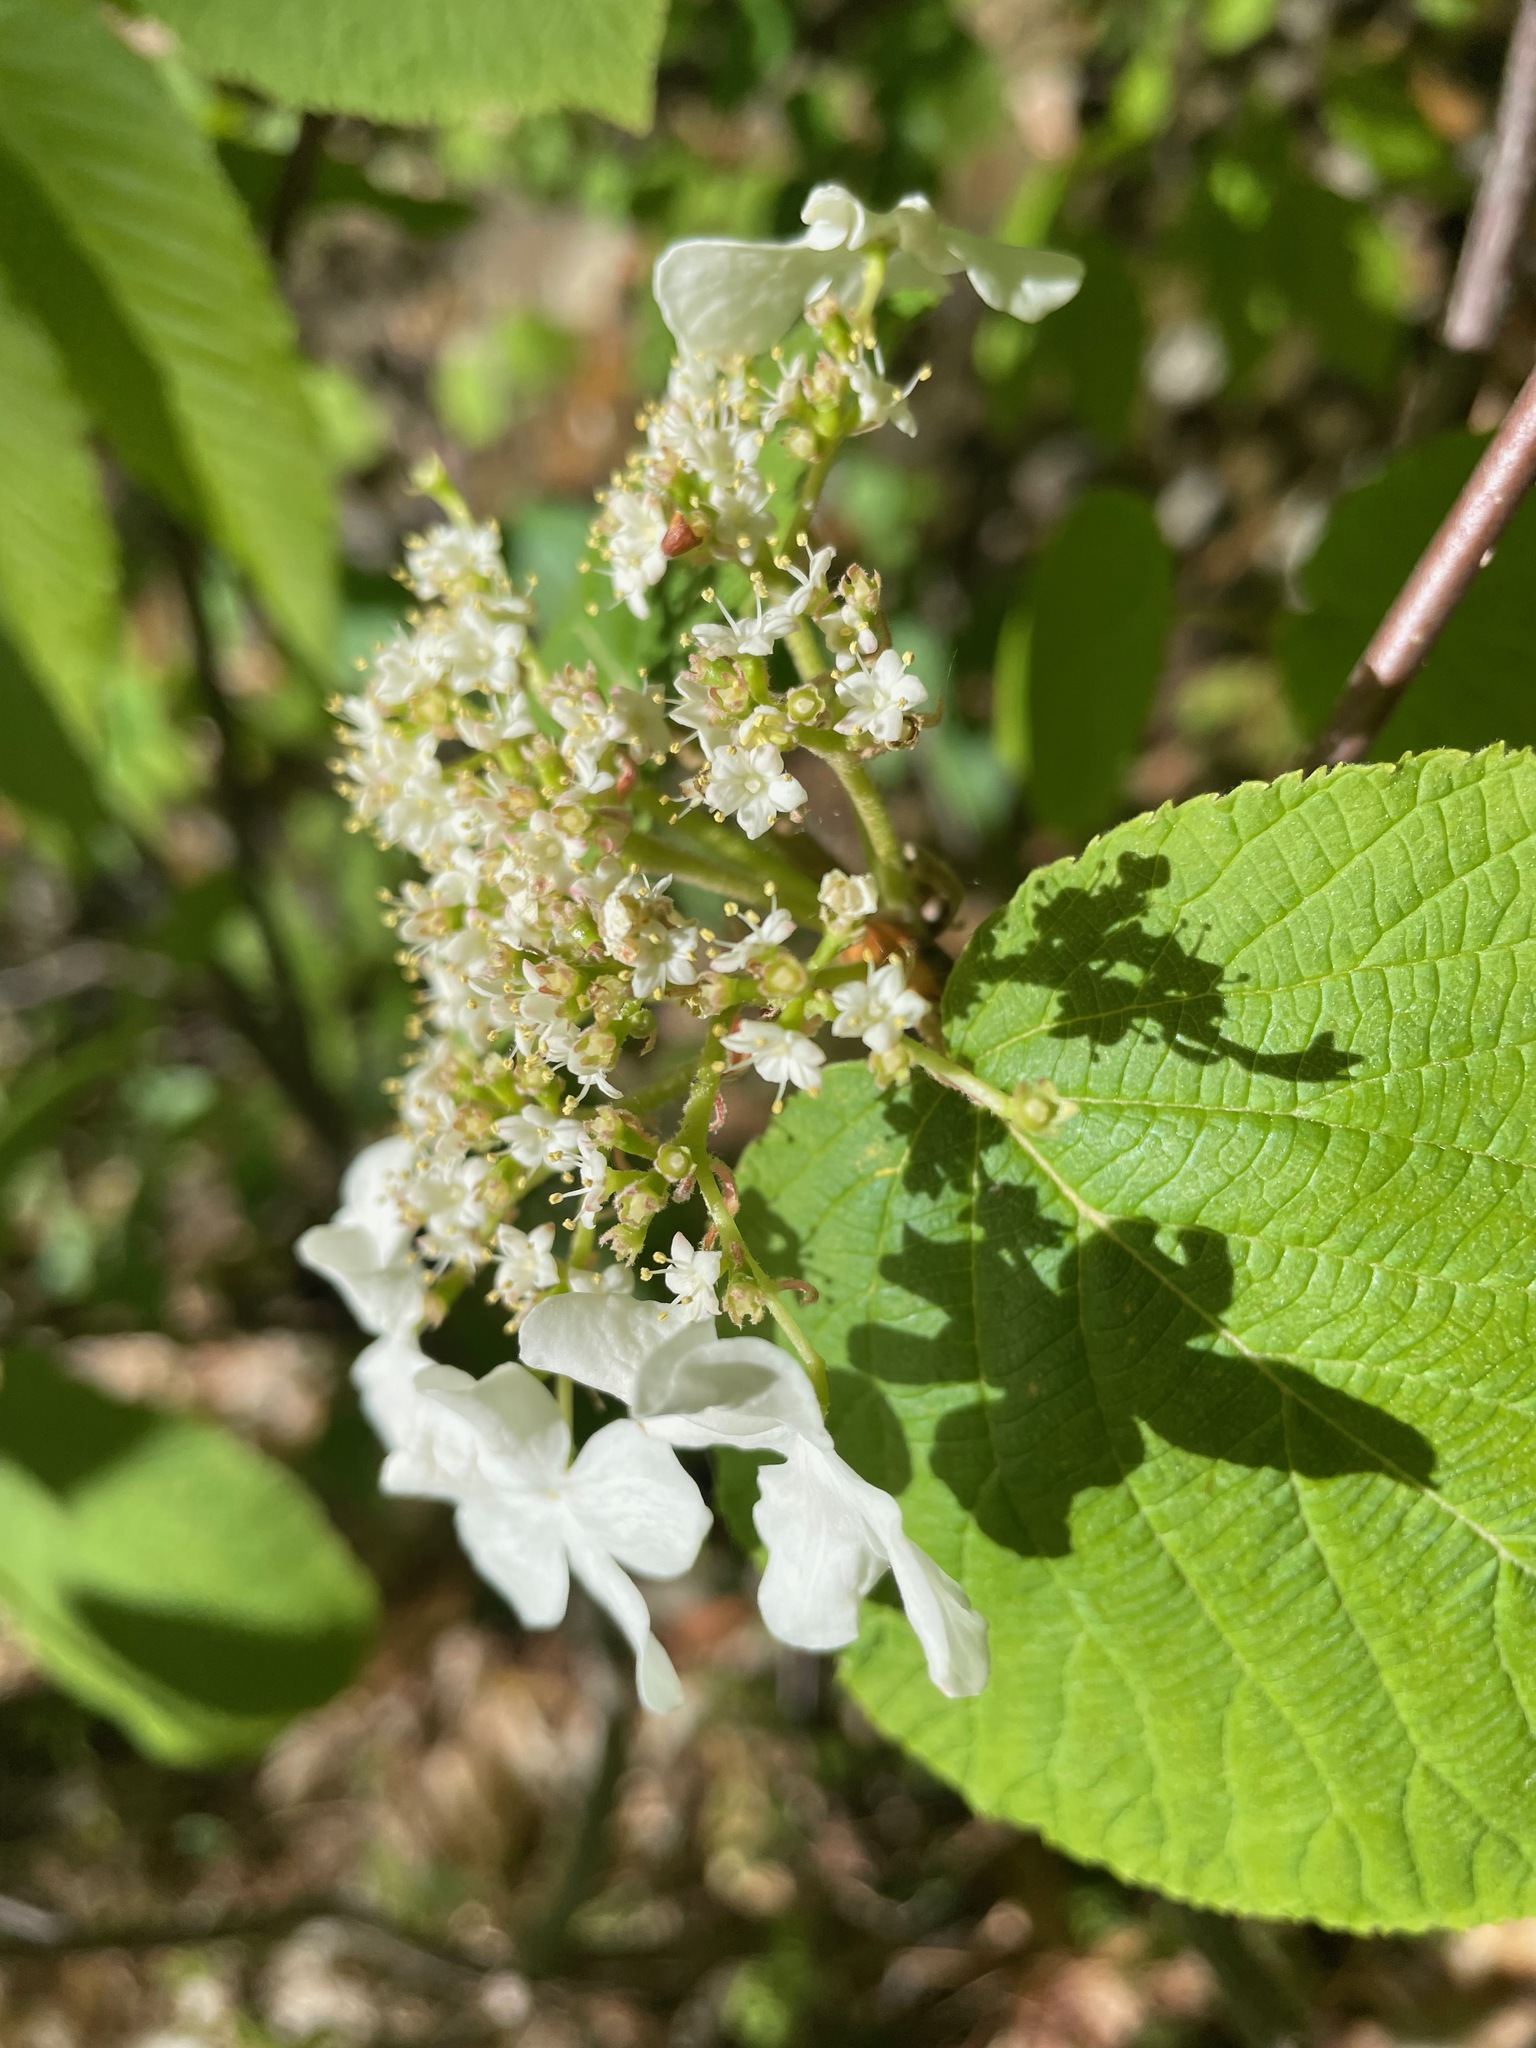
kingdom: Plantae
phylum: Tracheophyta
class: Magnoliopsida
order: Dipsacales
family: Viburnaceae
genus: Viburnum
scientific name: Viburnum lantanoides
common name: Hobblebush
